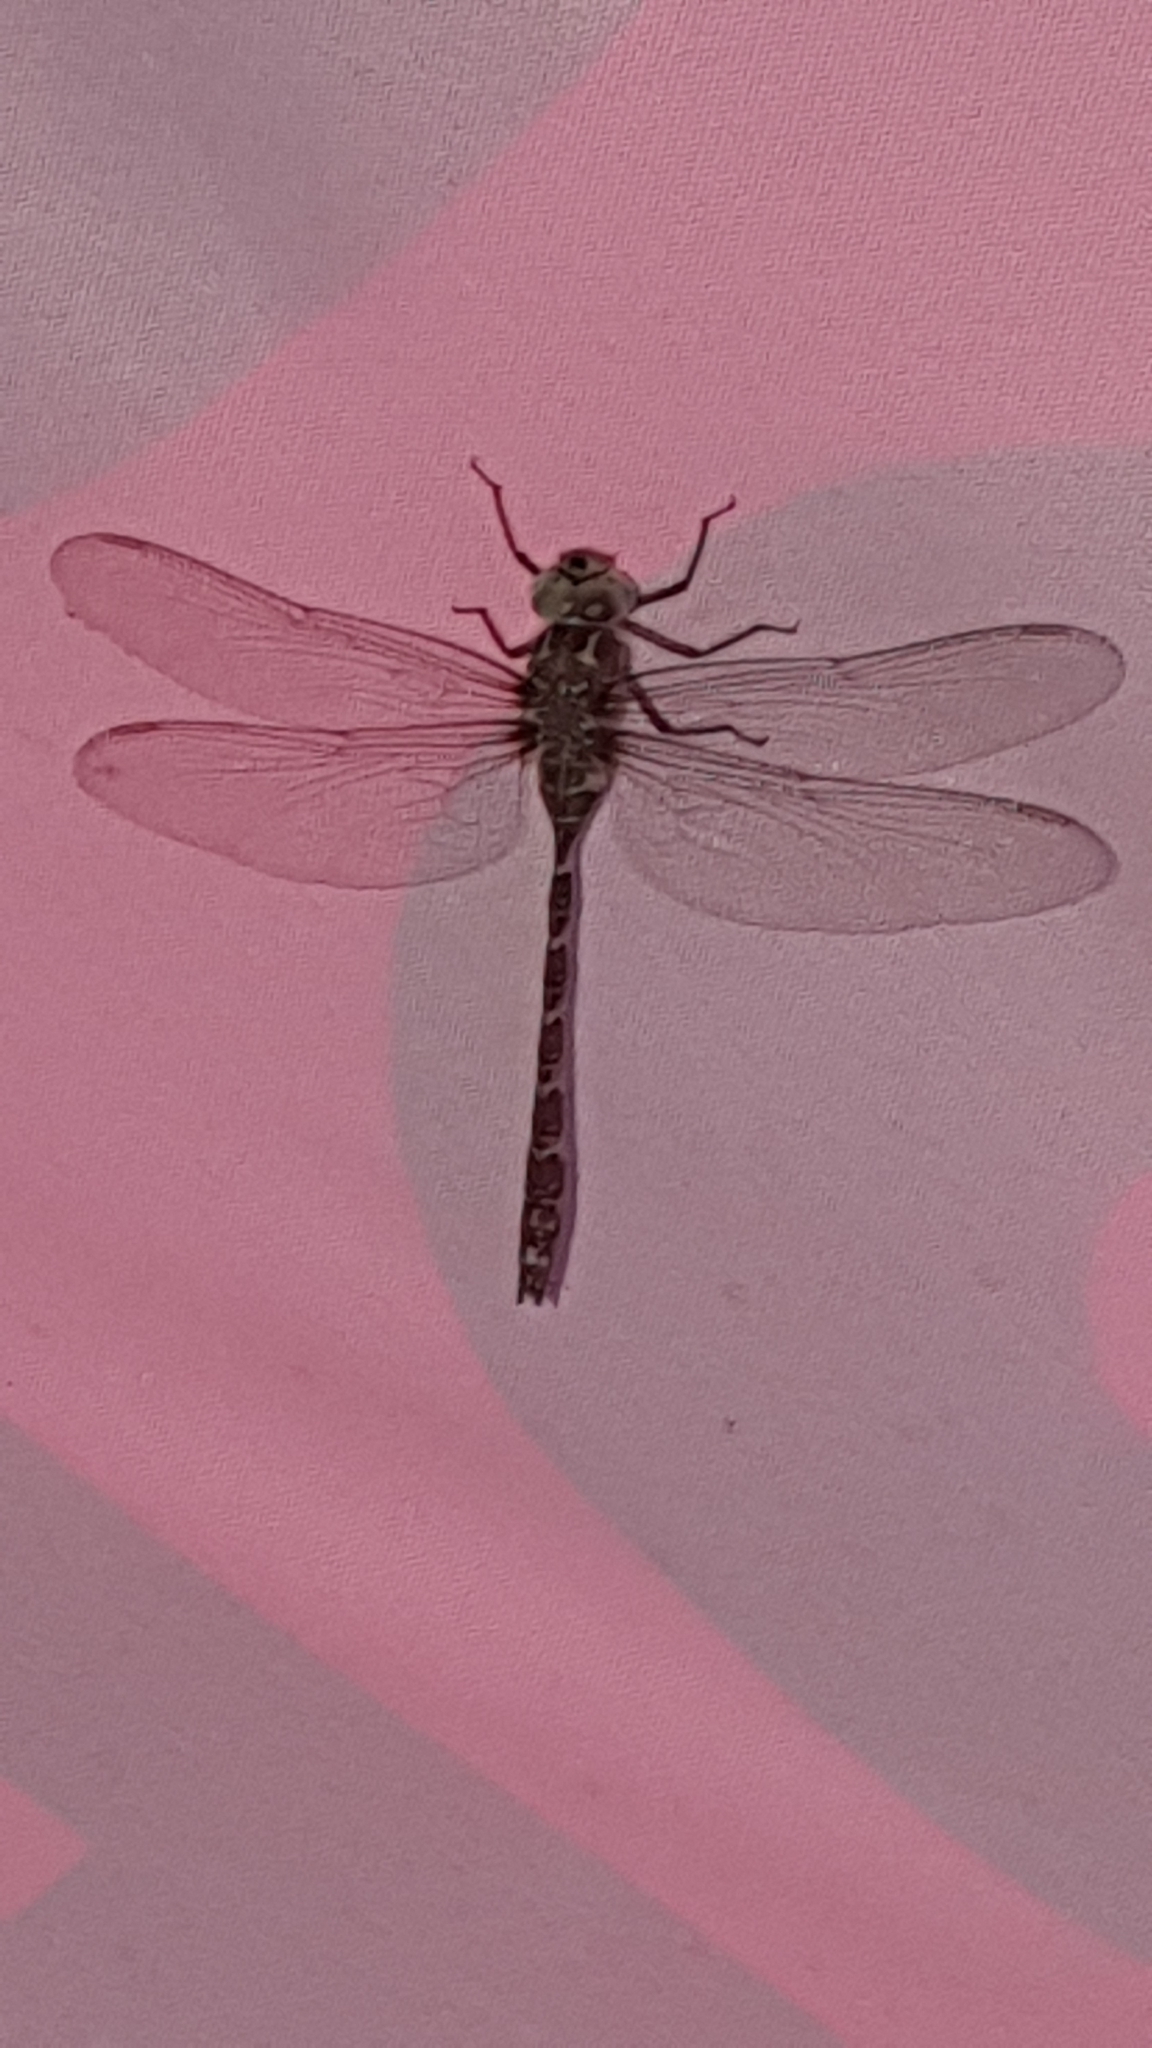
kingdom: Animalia
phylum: Arthropoda
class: Insecta
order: Odonata
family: Aeshnidae
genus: Boyeria
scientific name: Boyeria irene
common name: Western spectre
